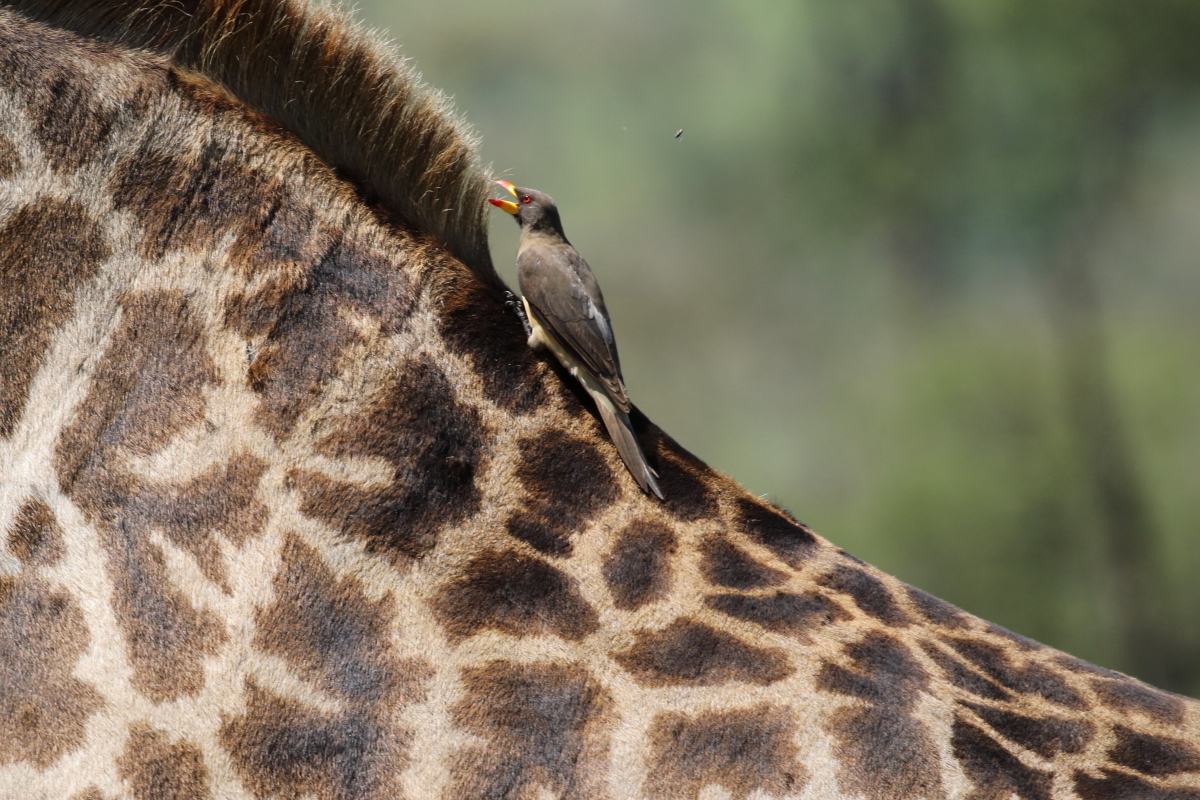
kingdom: Animalia
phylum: Chordata
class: Aves
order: Passeriformes
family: Buphagidae
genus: Buphagus
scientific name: Buphagus africanus
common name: Yellow-billed oxpecker
